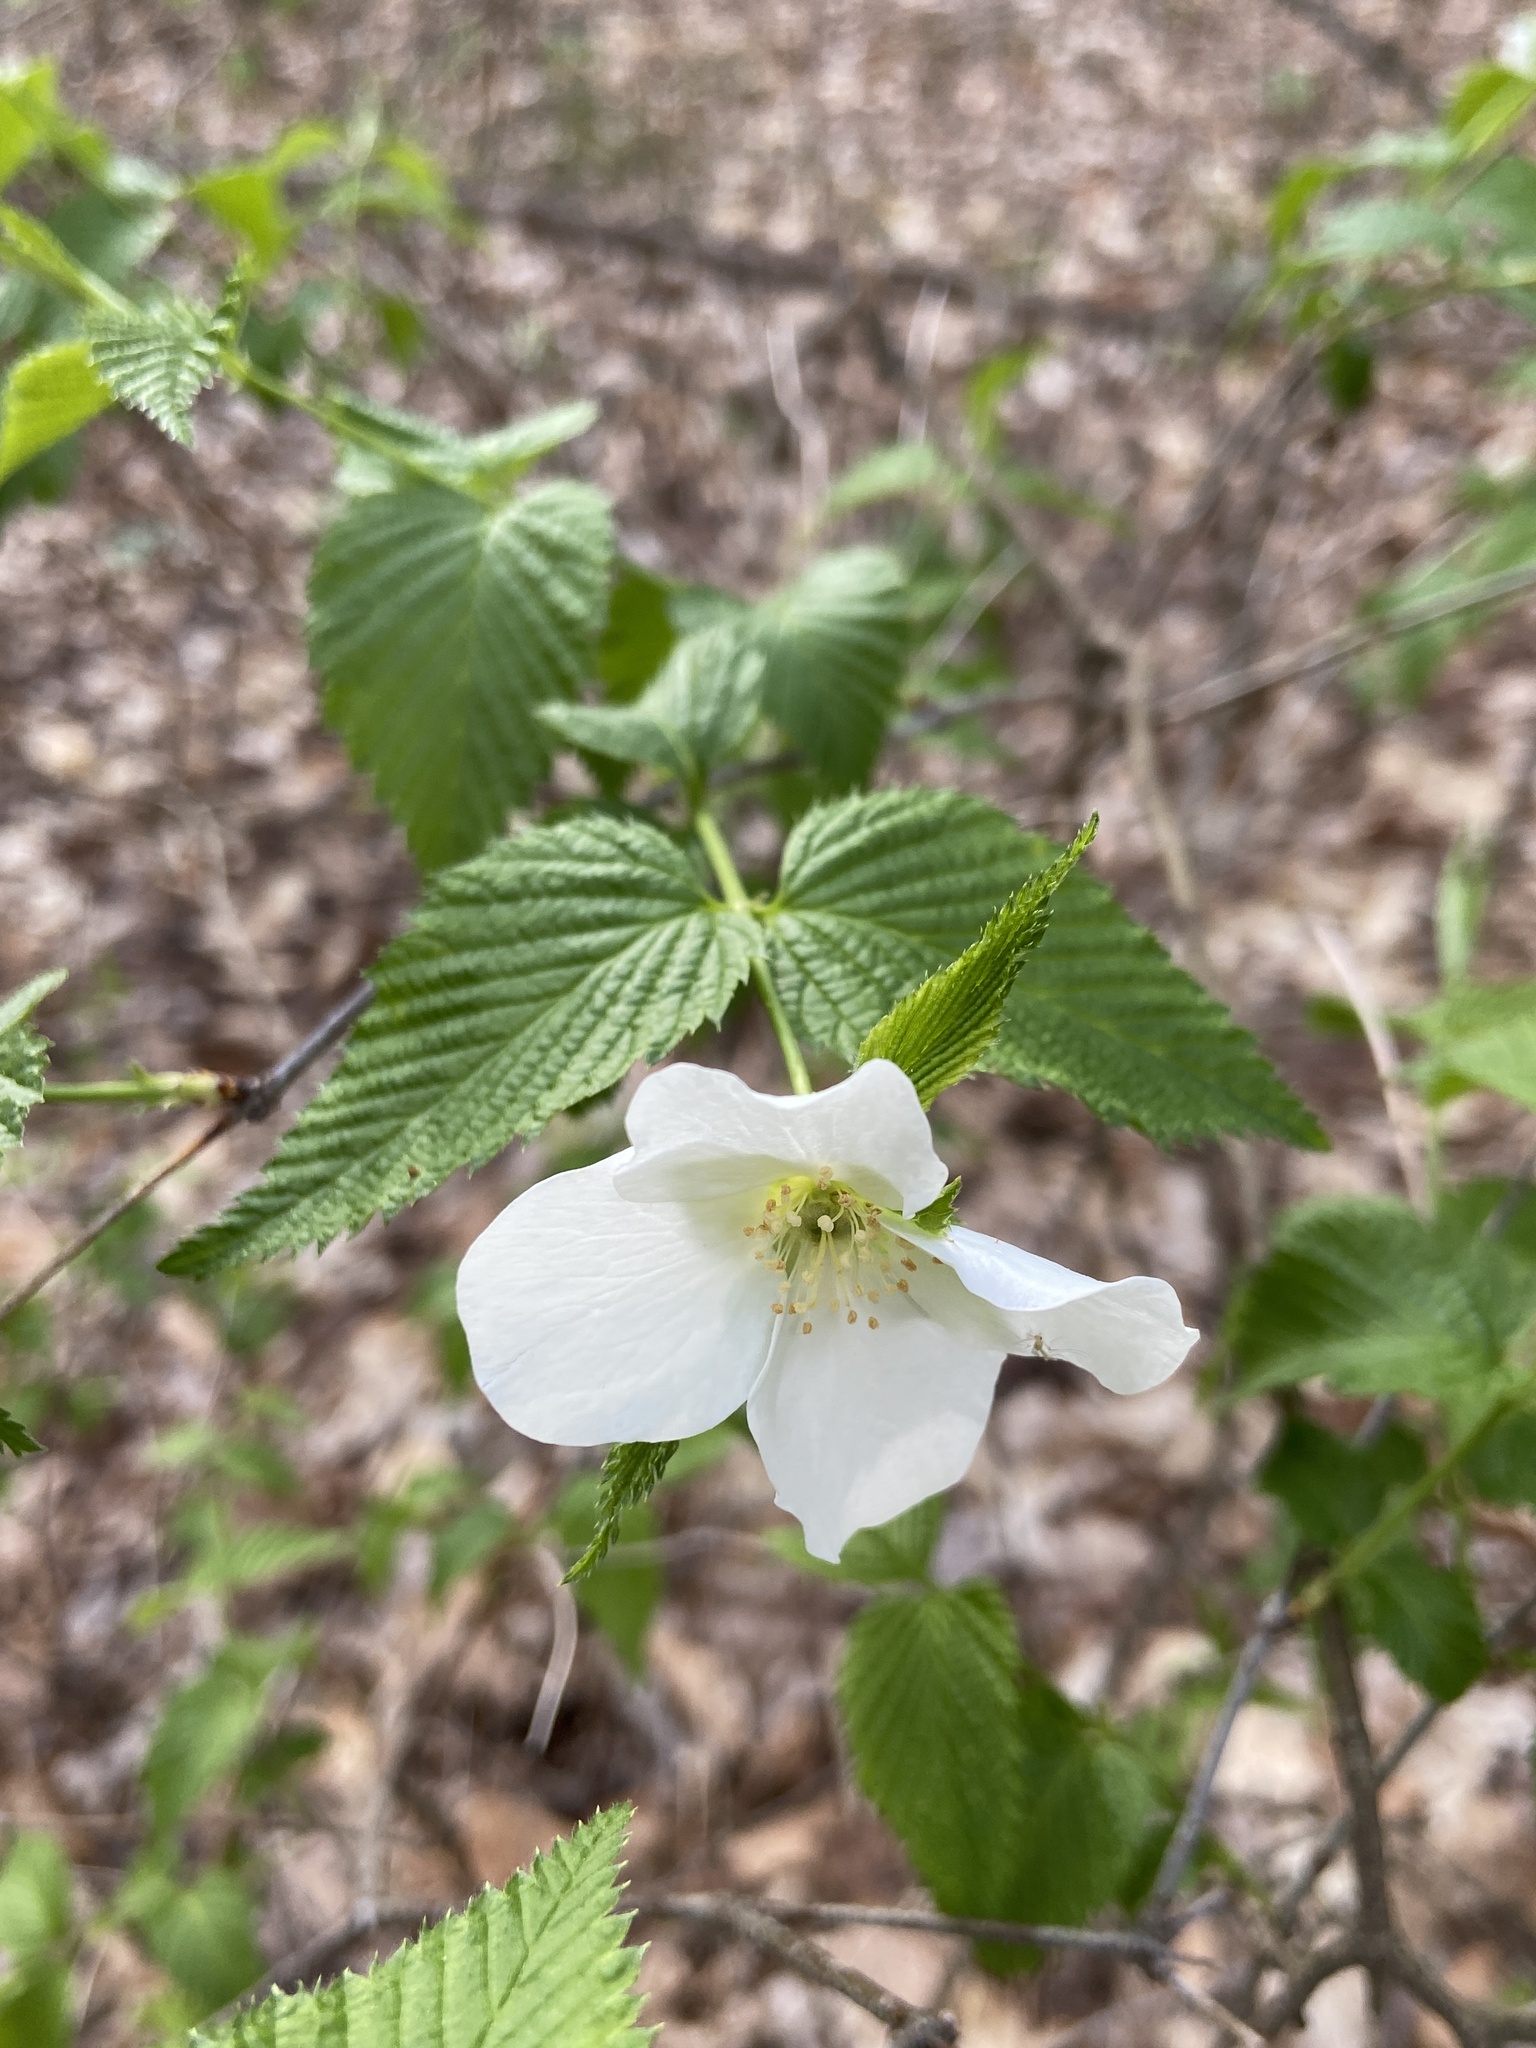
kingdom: Plantae
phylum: Tracheophyta
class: Magnoliopsida
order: Rosales
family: Rosaceae
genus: Rhodotypos
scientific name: Rhodotypos scandens
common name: Jetbead
